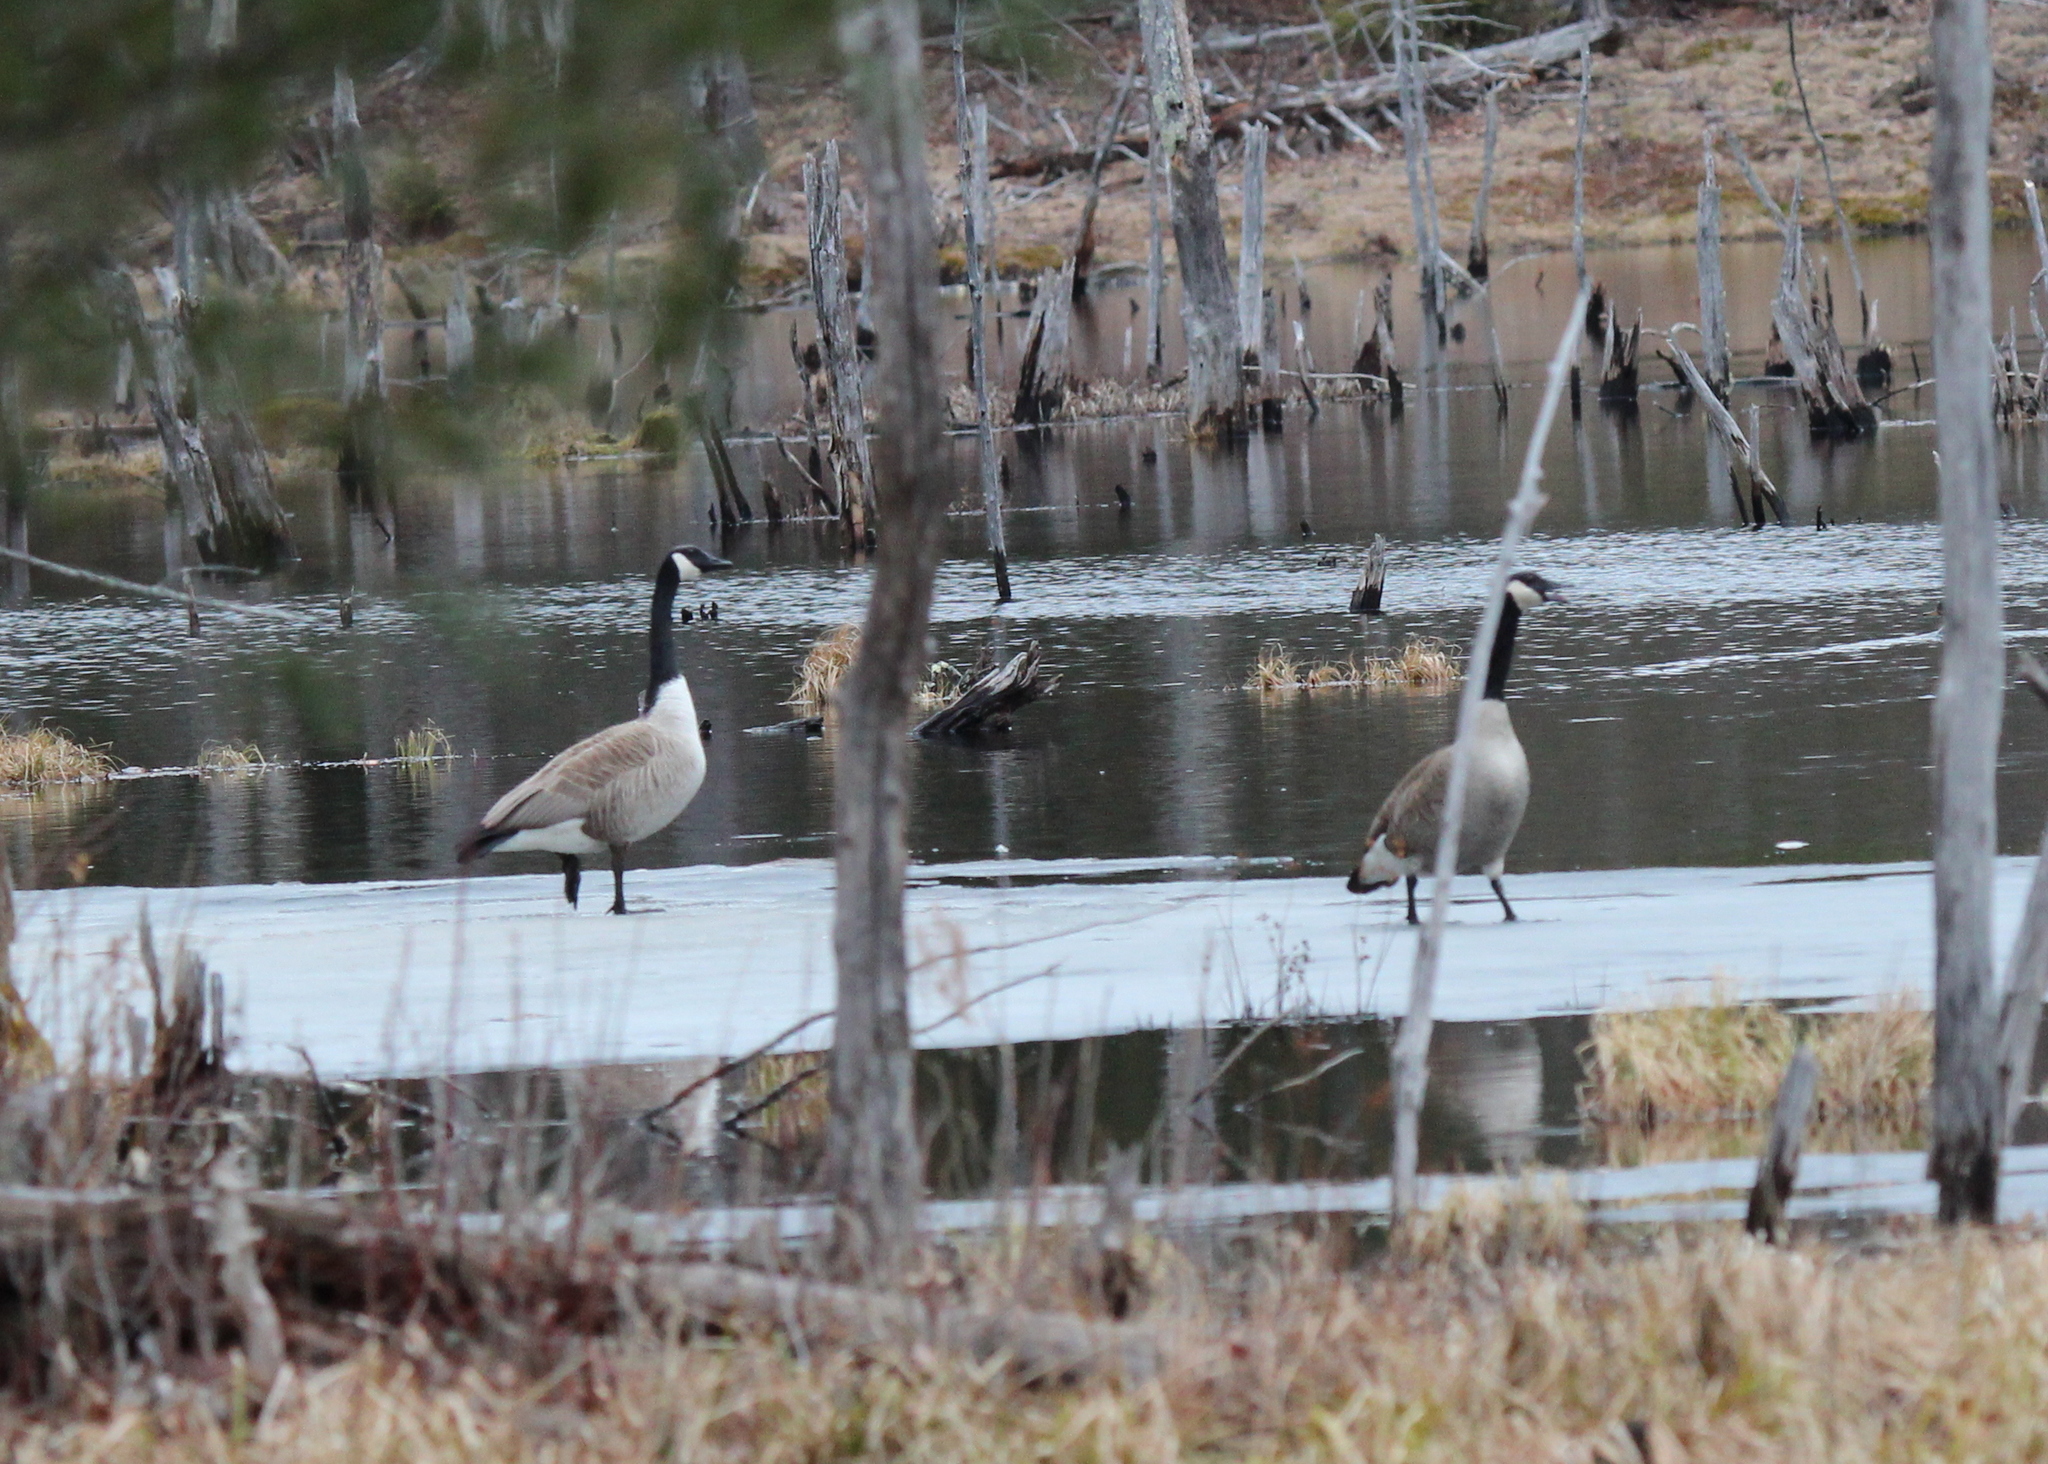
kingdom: Animalia
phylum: Chordata
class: Aves
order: Anseriformes
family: Anatidae
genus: Branta
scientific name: Branta canadensis
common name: Canada goose
